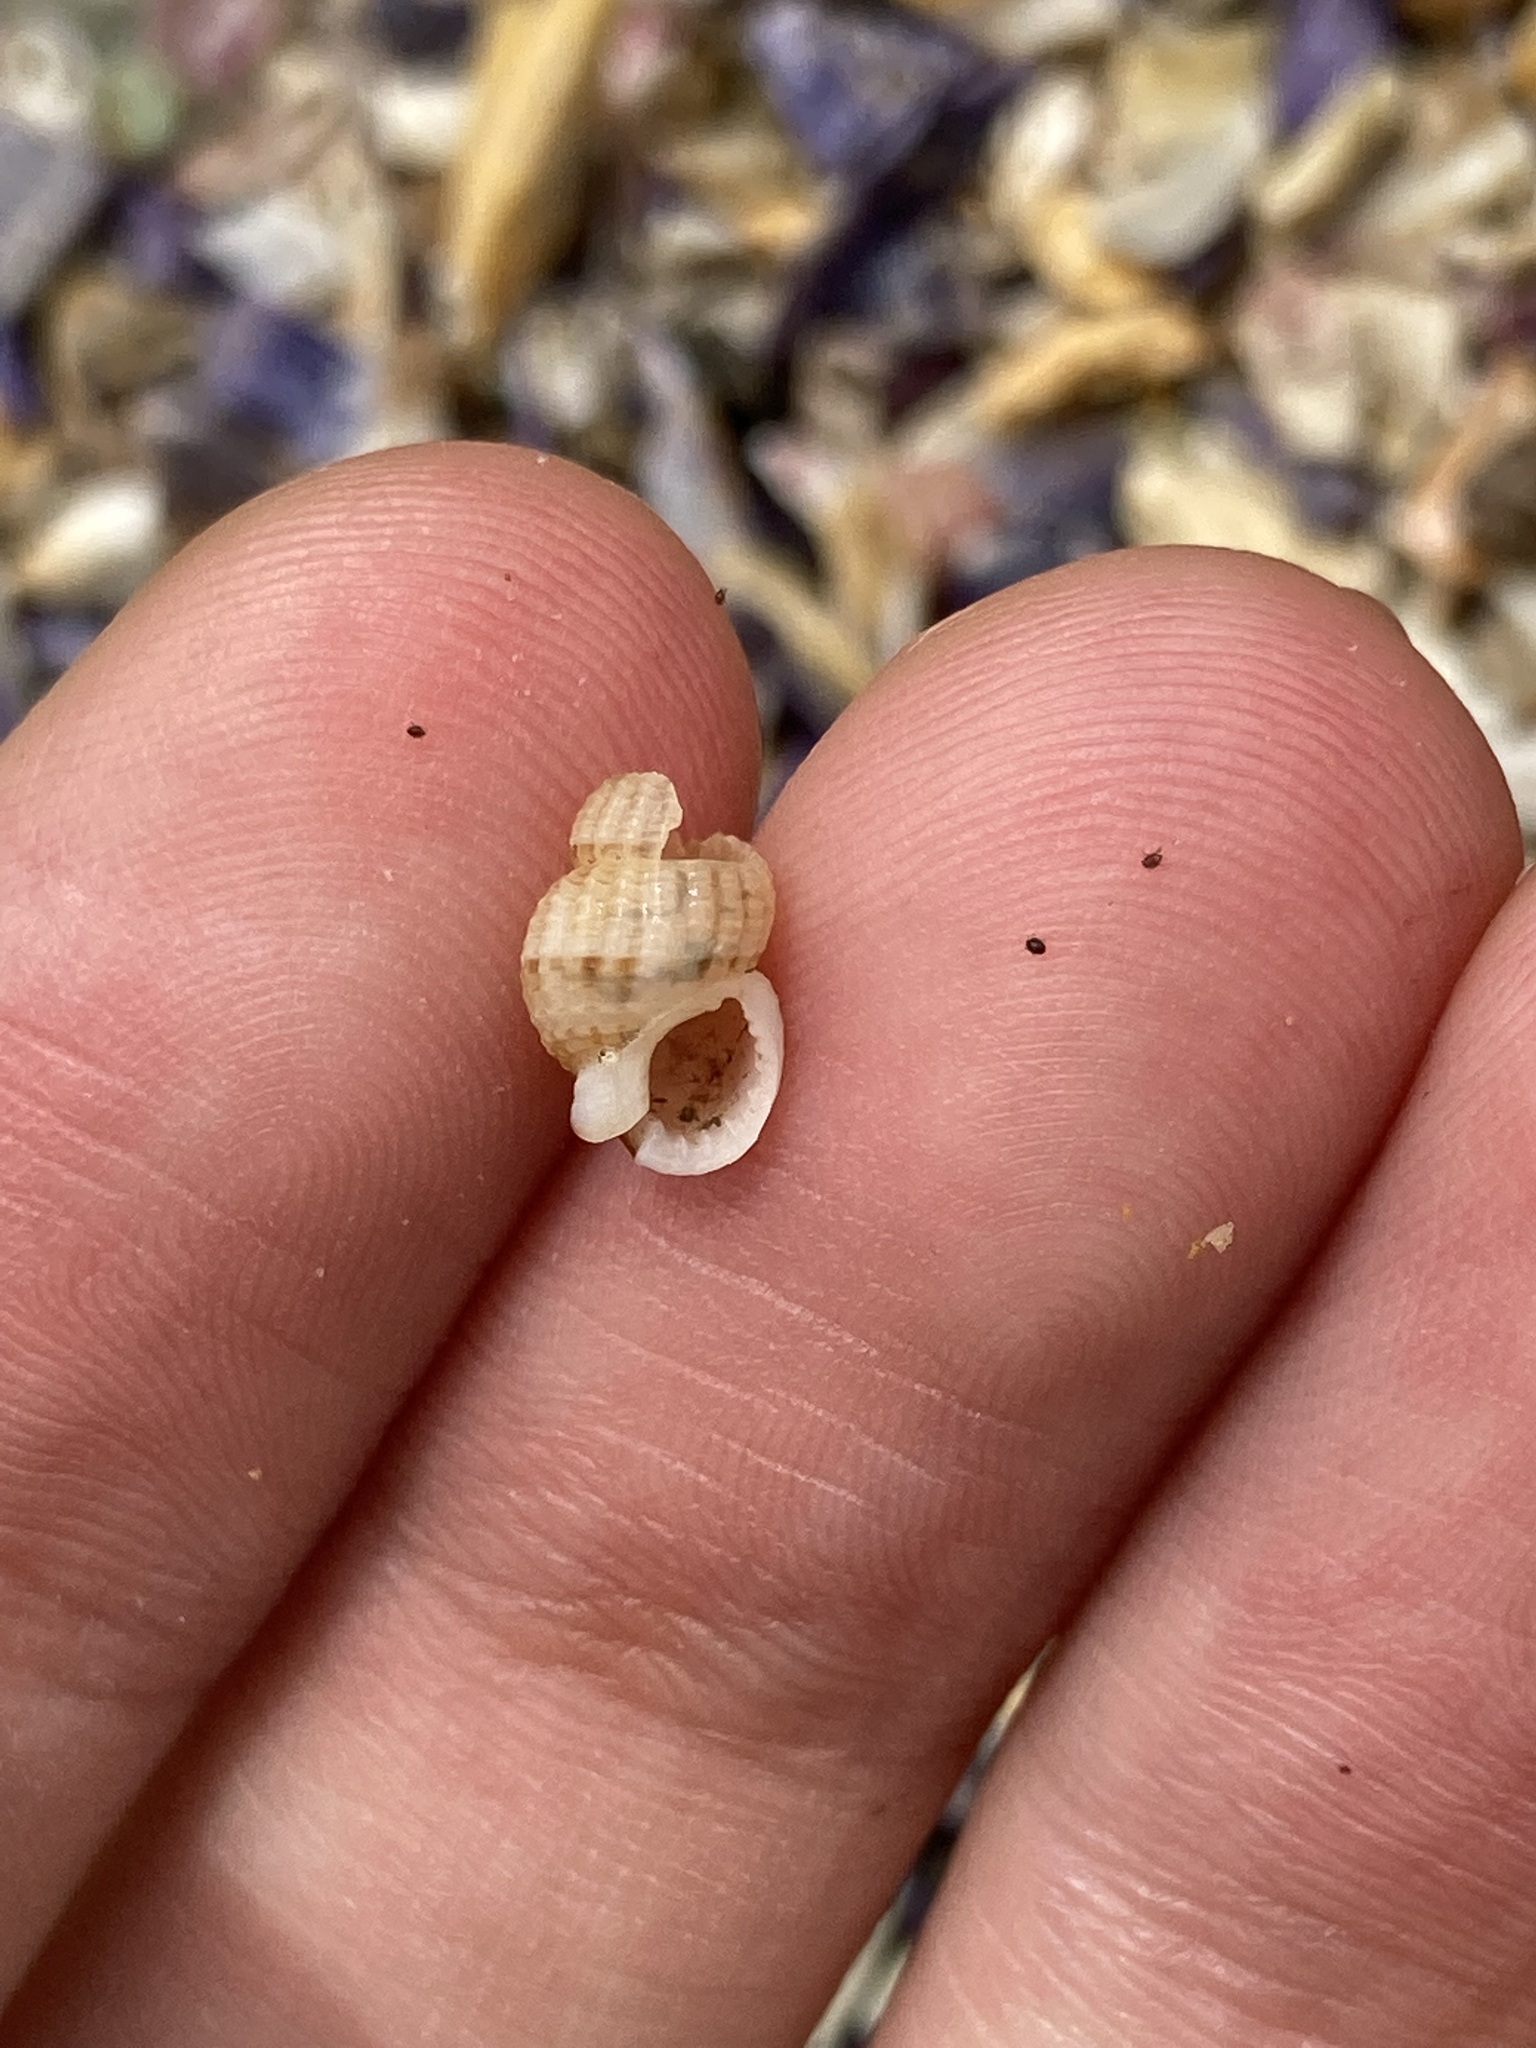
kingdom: Animalia
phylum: Mollusca
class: Gastropoda
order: Neogastropoda
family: Nassariidae
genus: Reticunassa
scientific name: Reticunassa paupera
